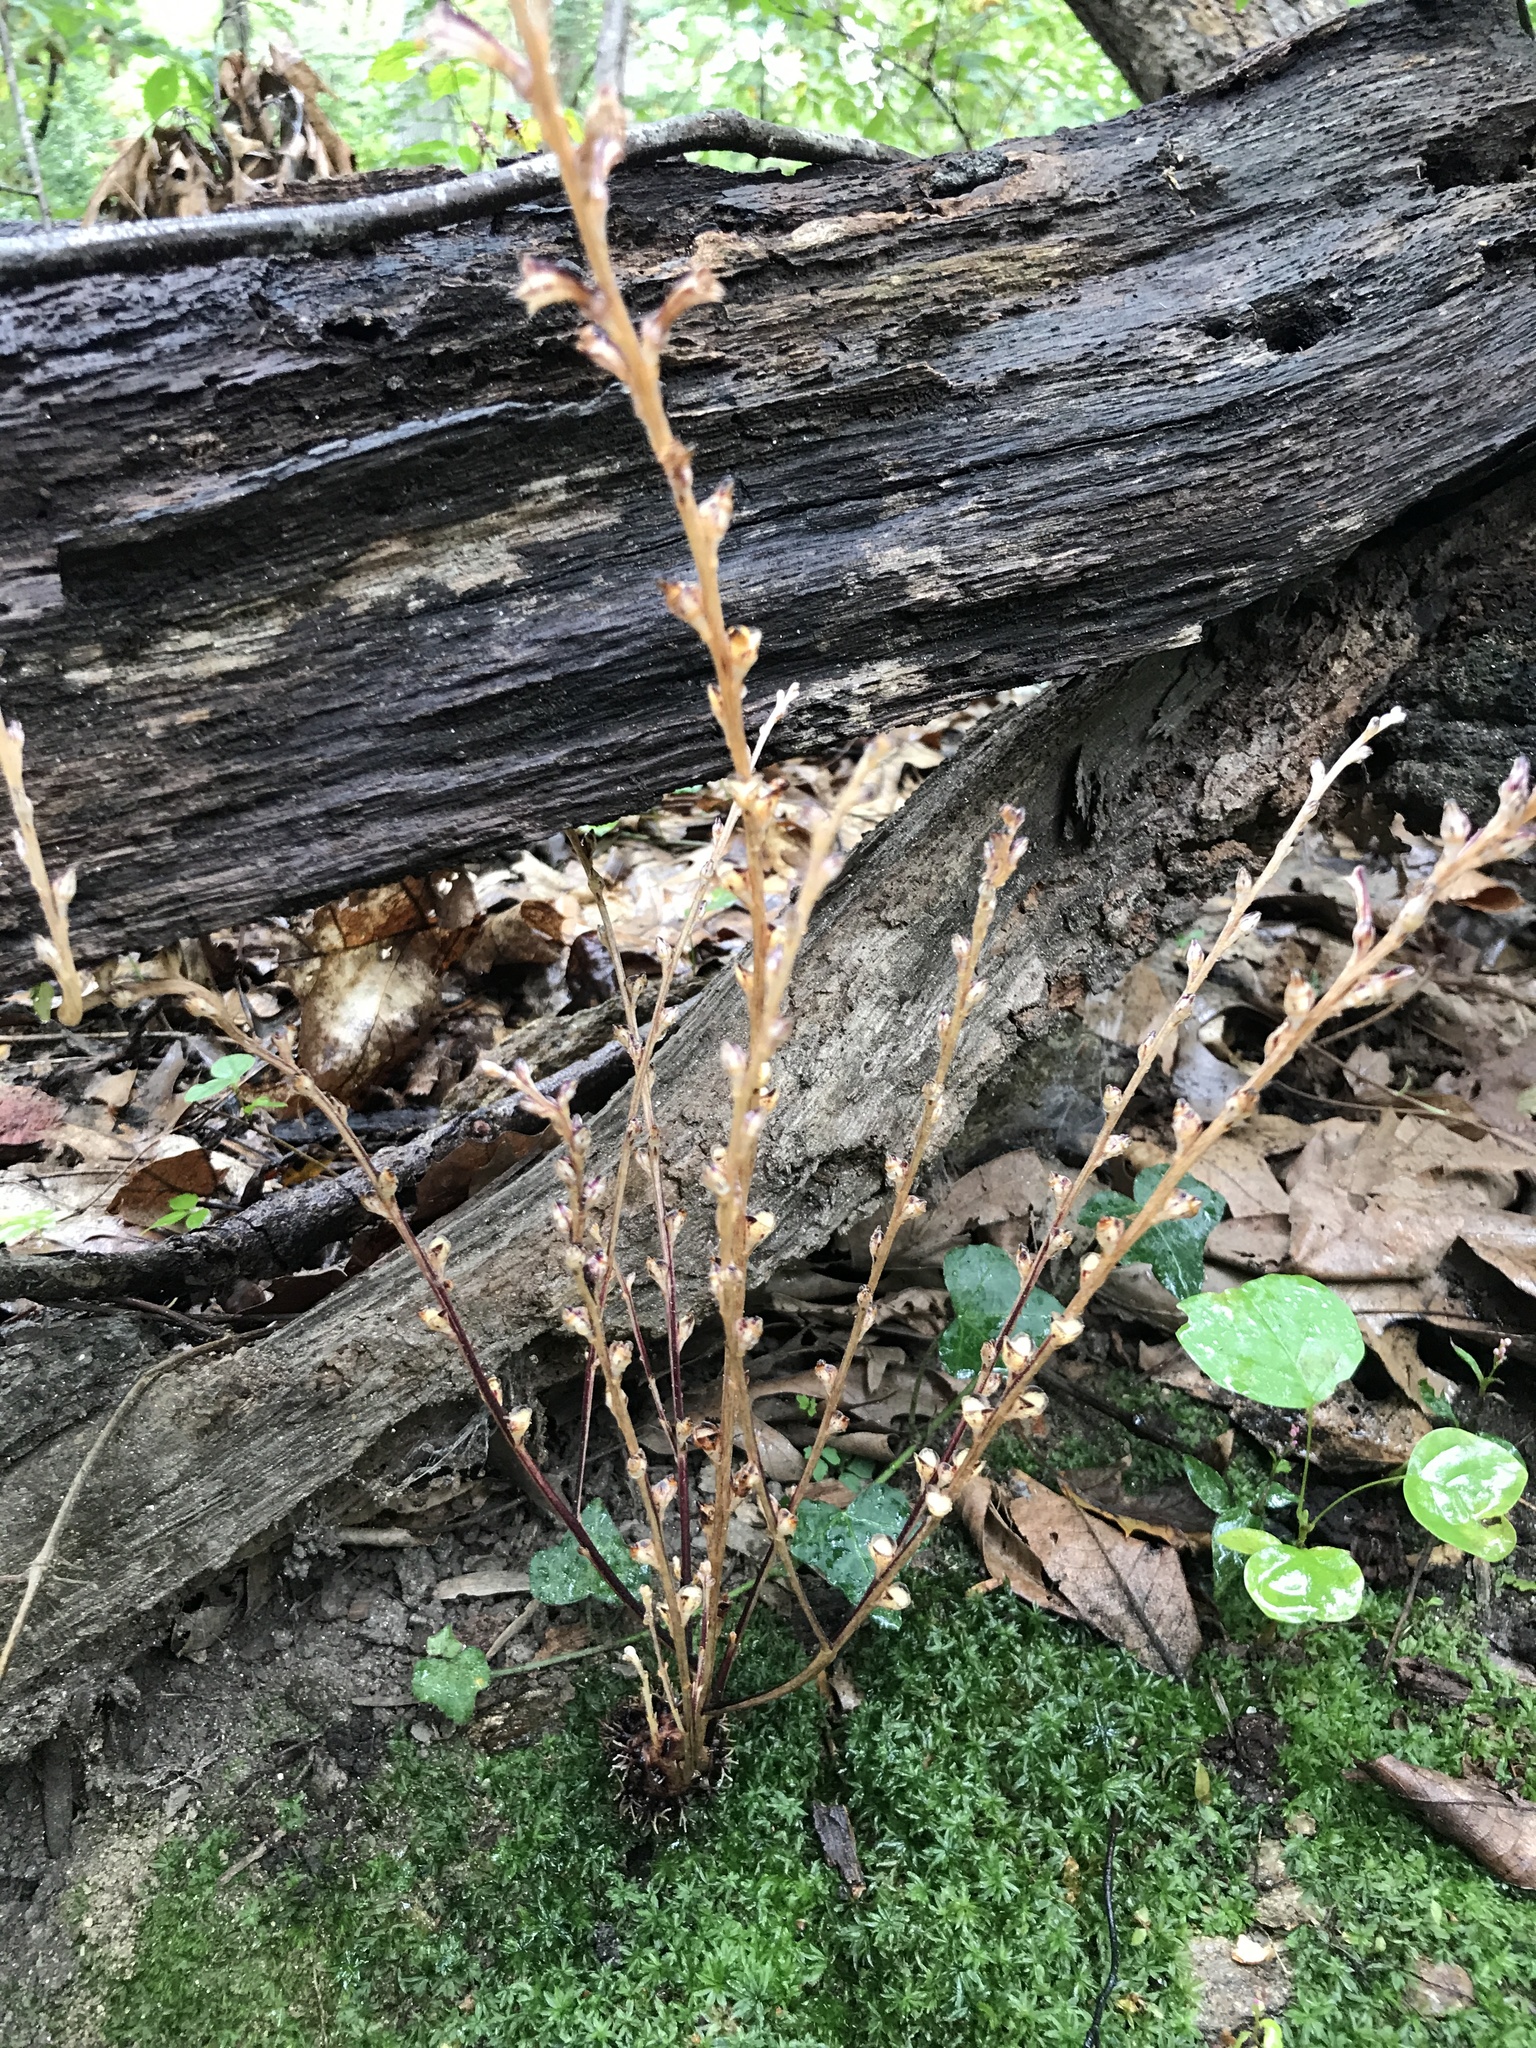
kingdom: Plantae
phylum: Tracheophyta
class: Magnoliopsida
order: Lamiales
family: Orobanchaceae
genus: Epifagus
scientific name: Epifagus virginiana
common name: Beechdrops
